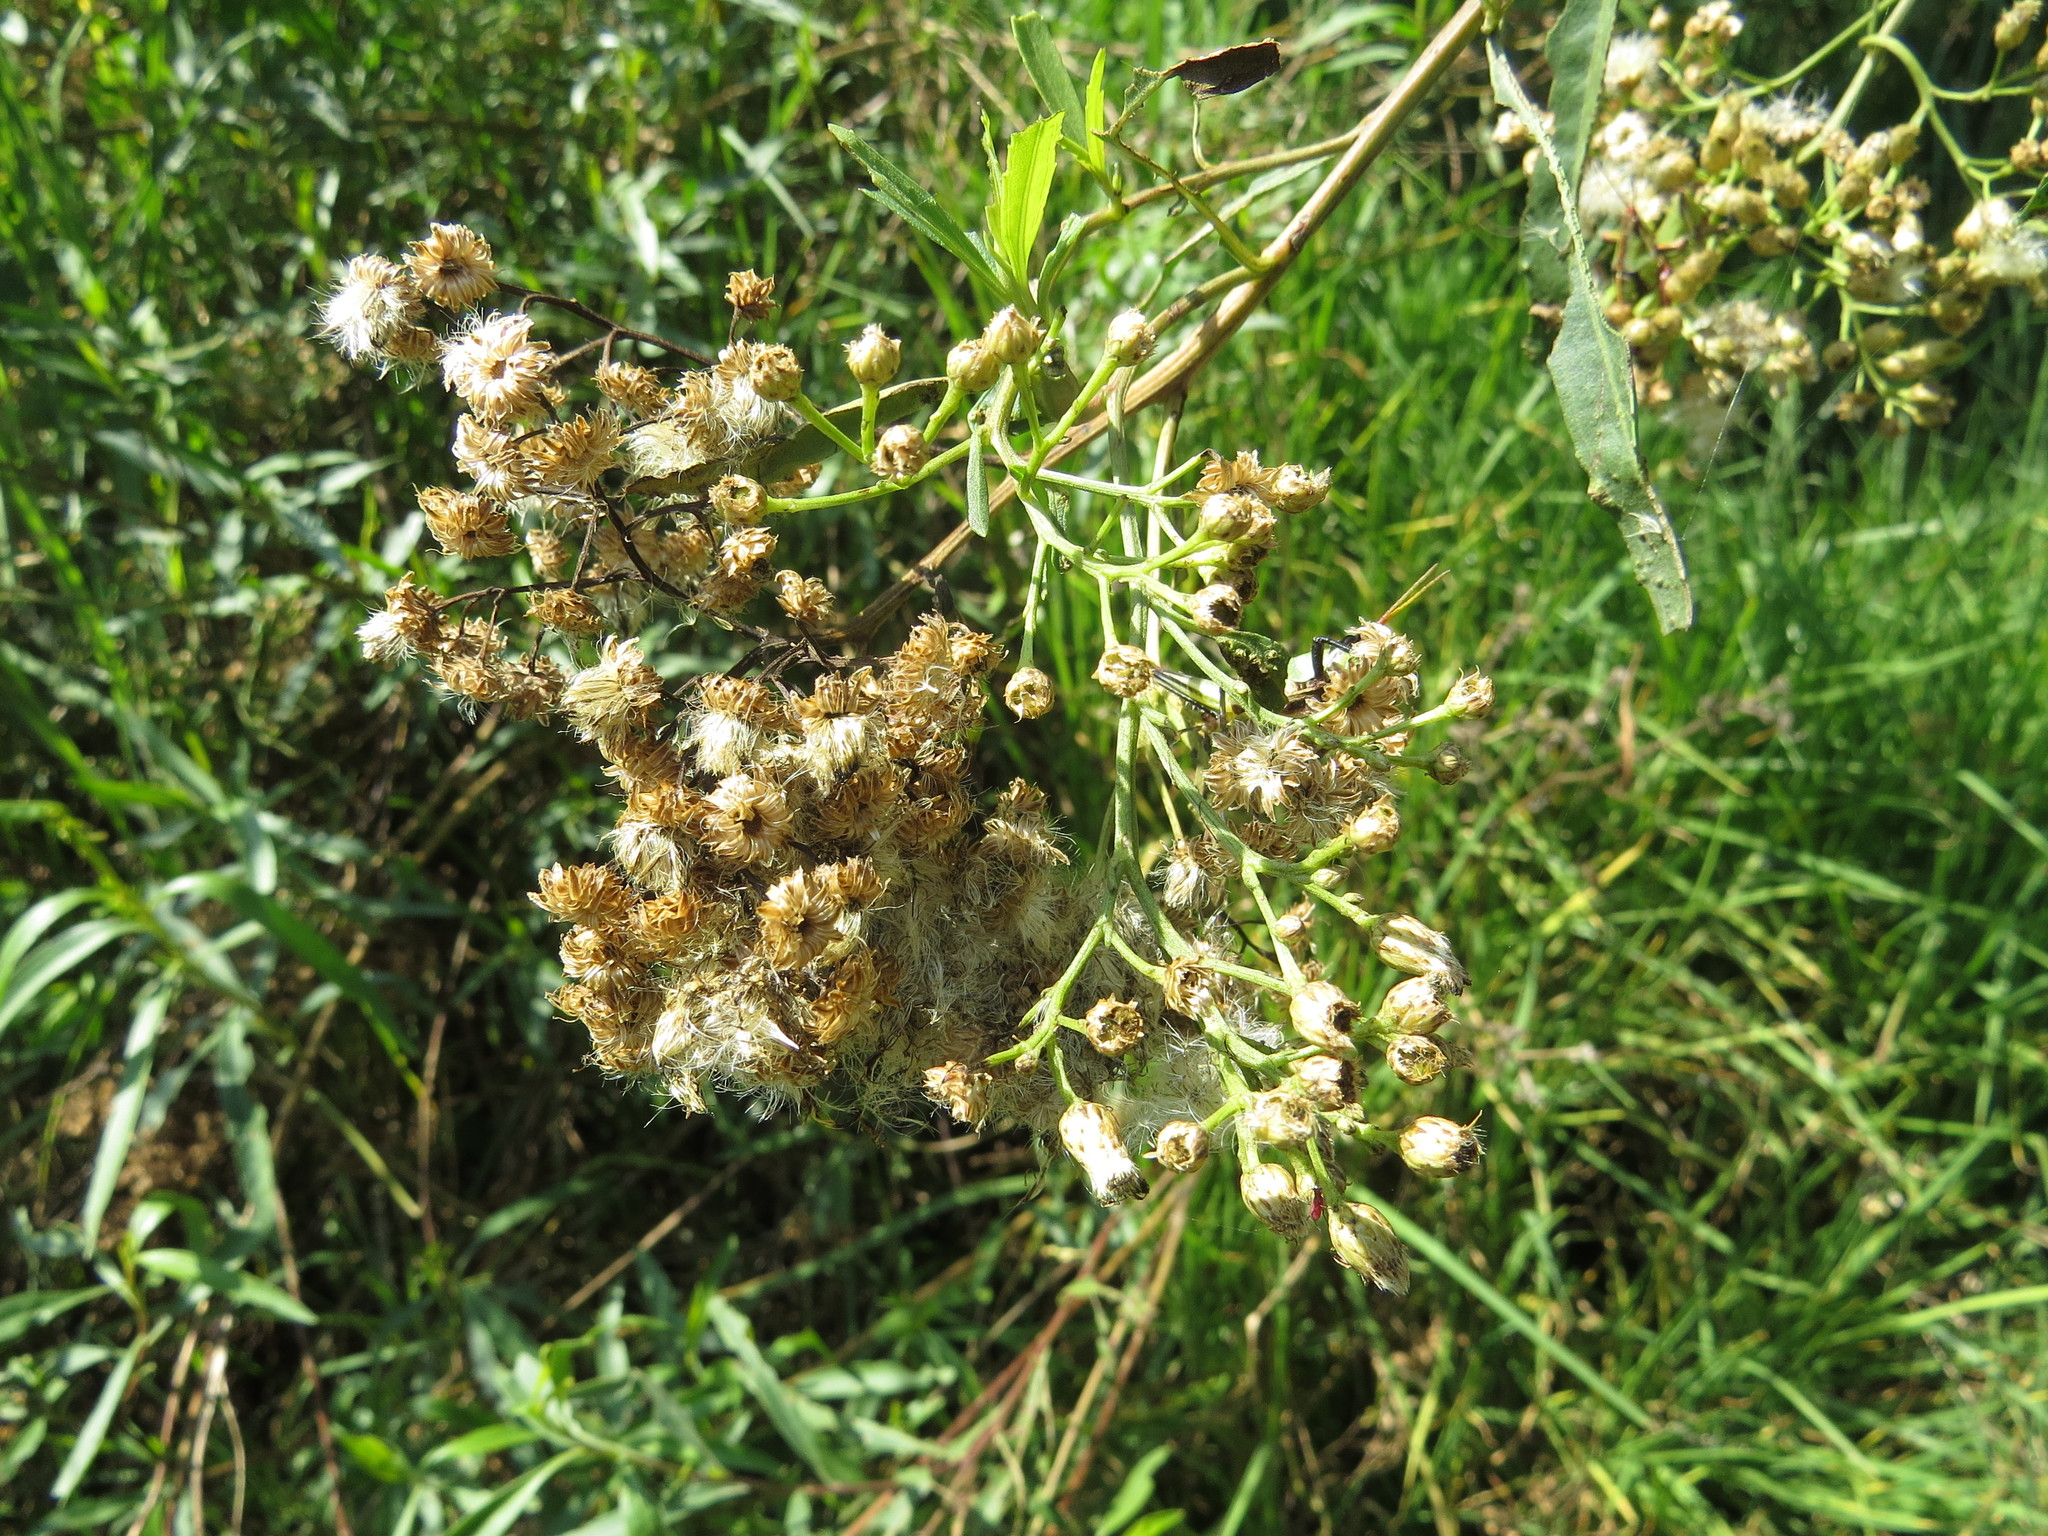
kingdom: Plantae
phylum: Tracheophyta
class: Magnoliopsida
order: Asterales
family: Asteraceae
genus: Baccharis
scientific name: Baccharis salicifolia
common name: Sticky baccharis
